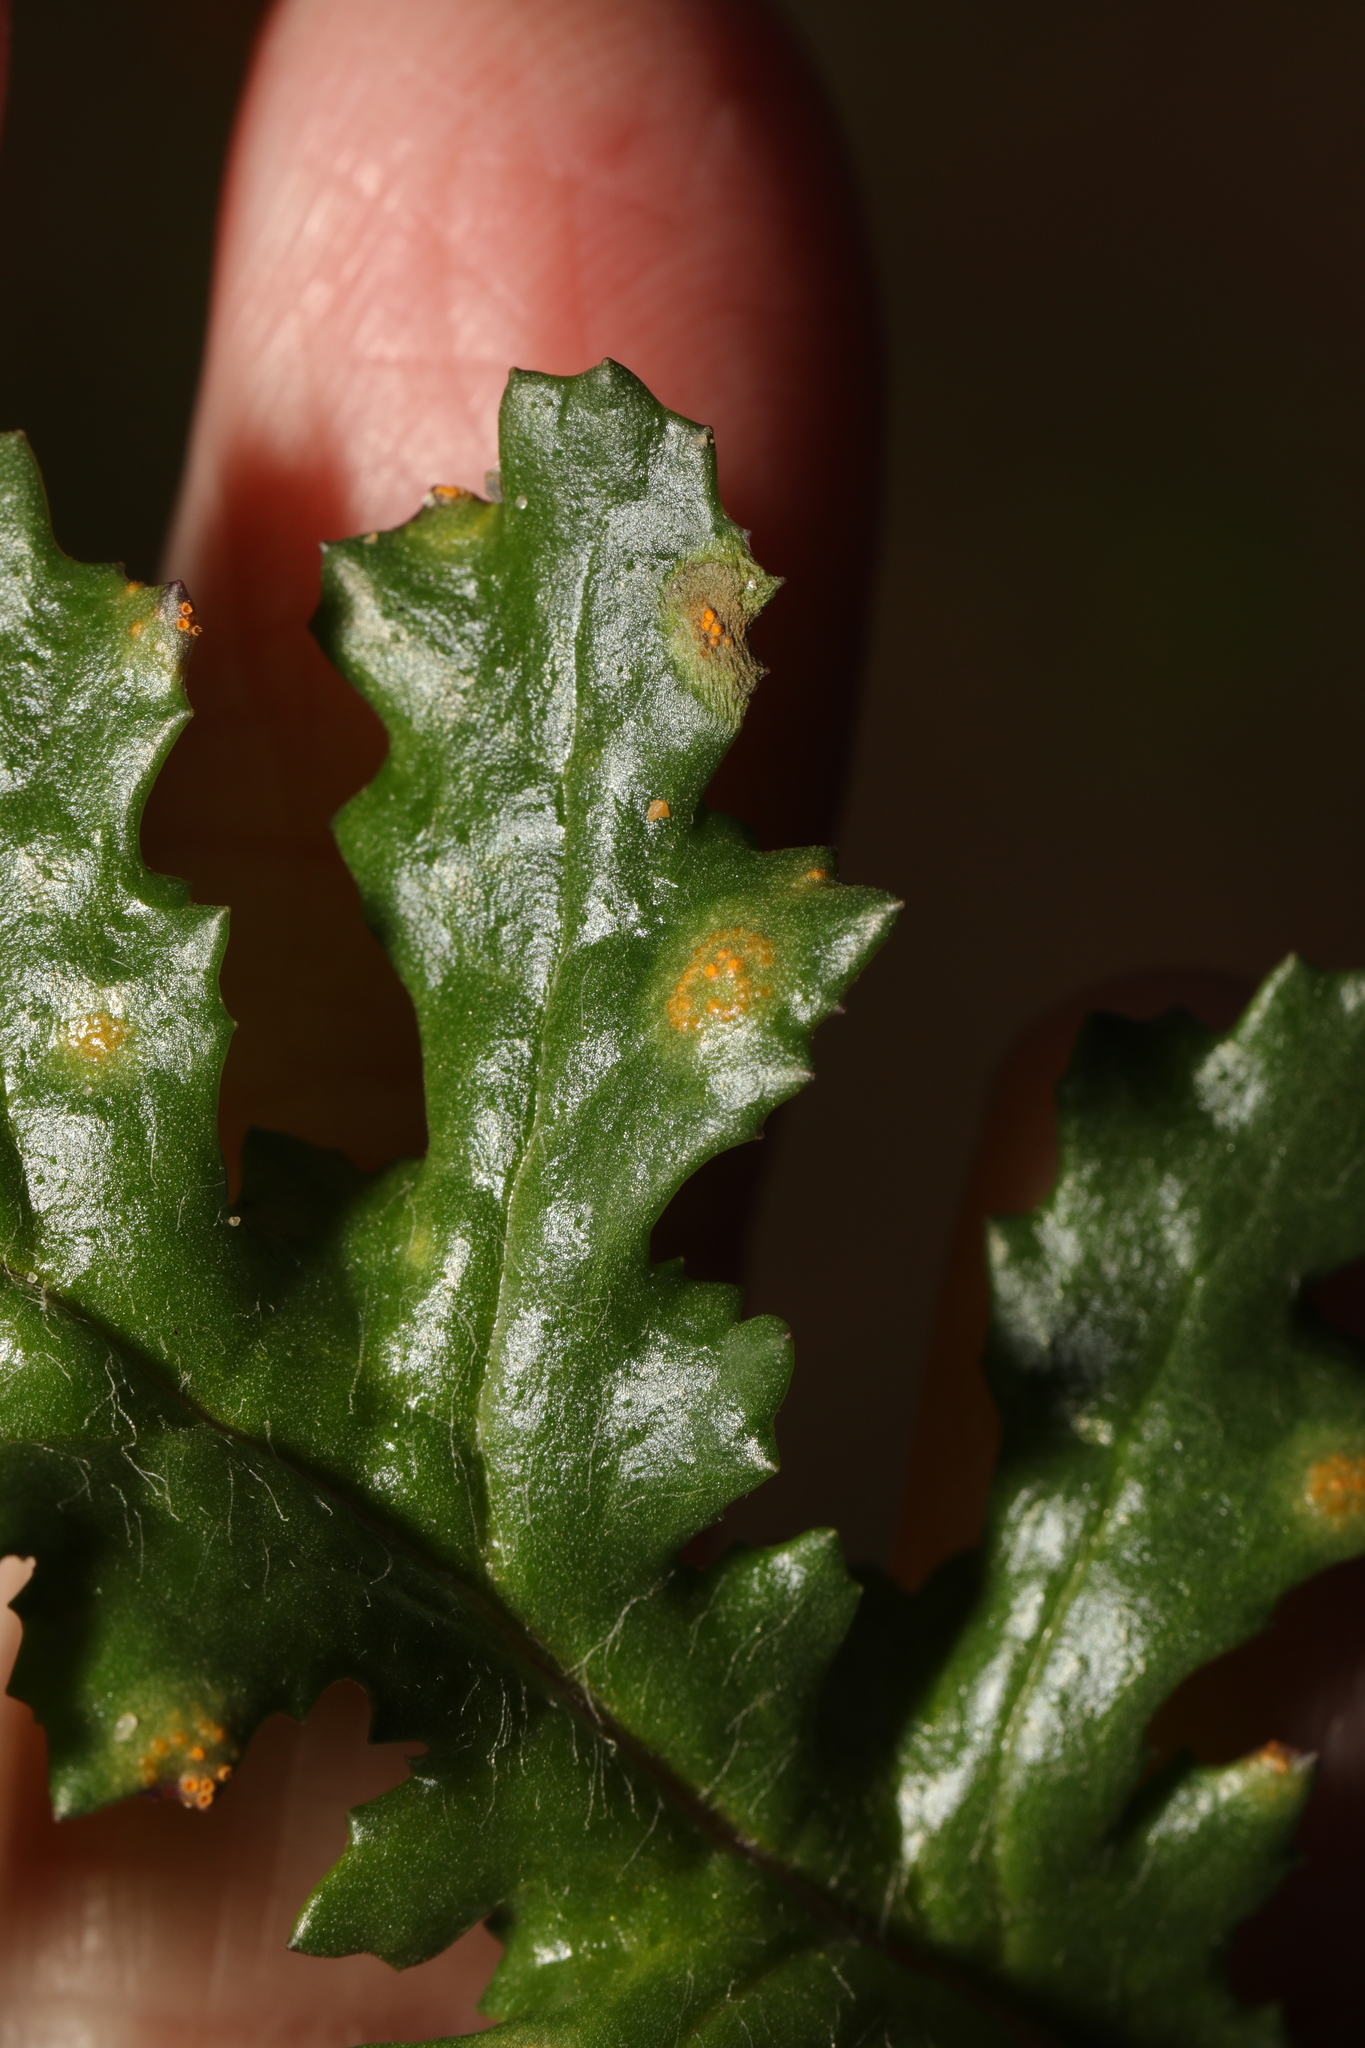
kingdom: Fungi
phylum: Basidiomycota
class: Pucciniomycetes
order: Pucciniales
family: Pucciniaceae
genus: Puccinia
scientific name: Puccinia lagenophorae
